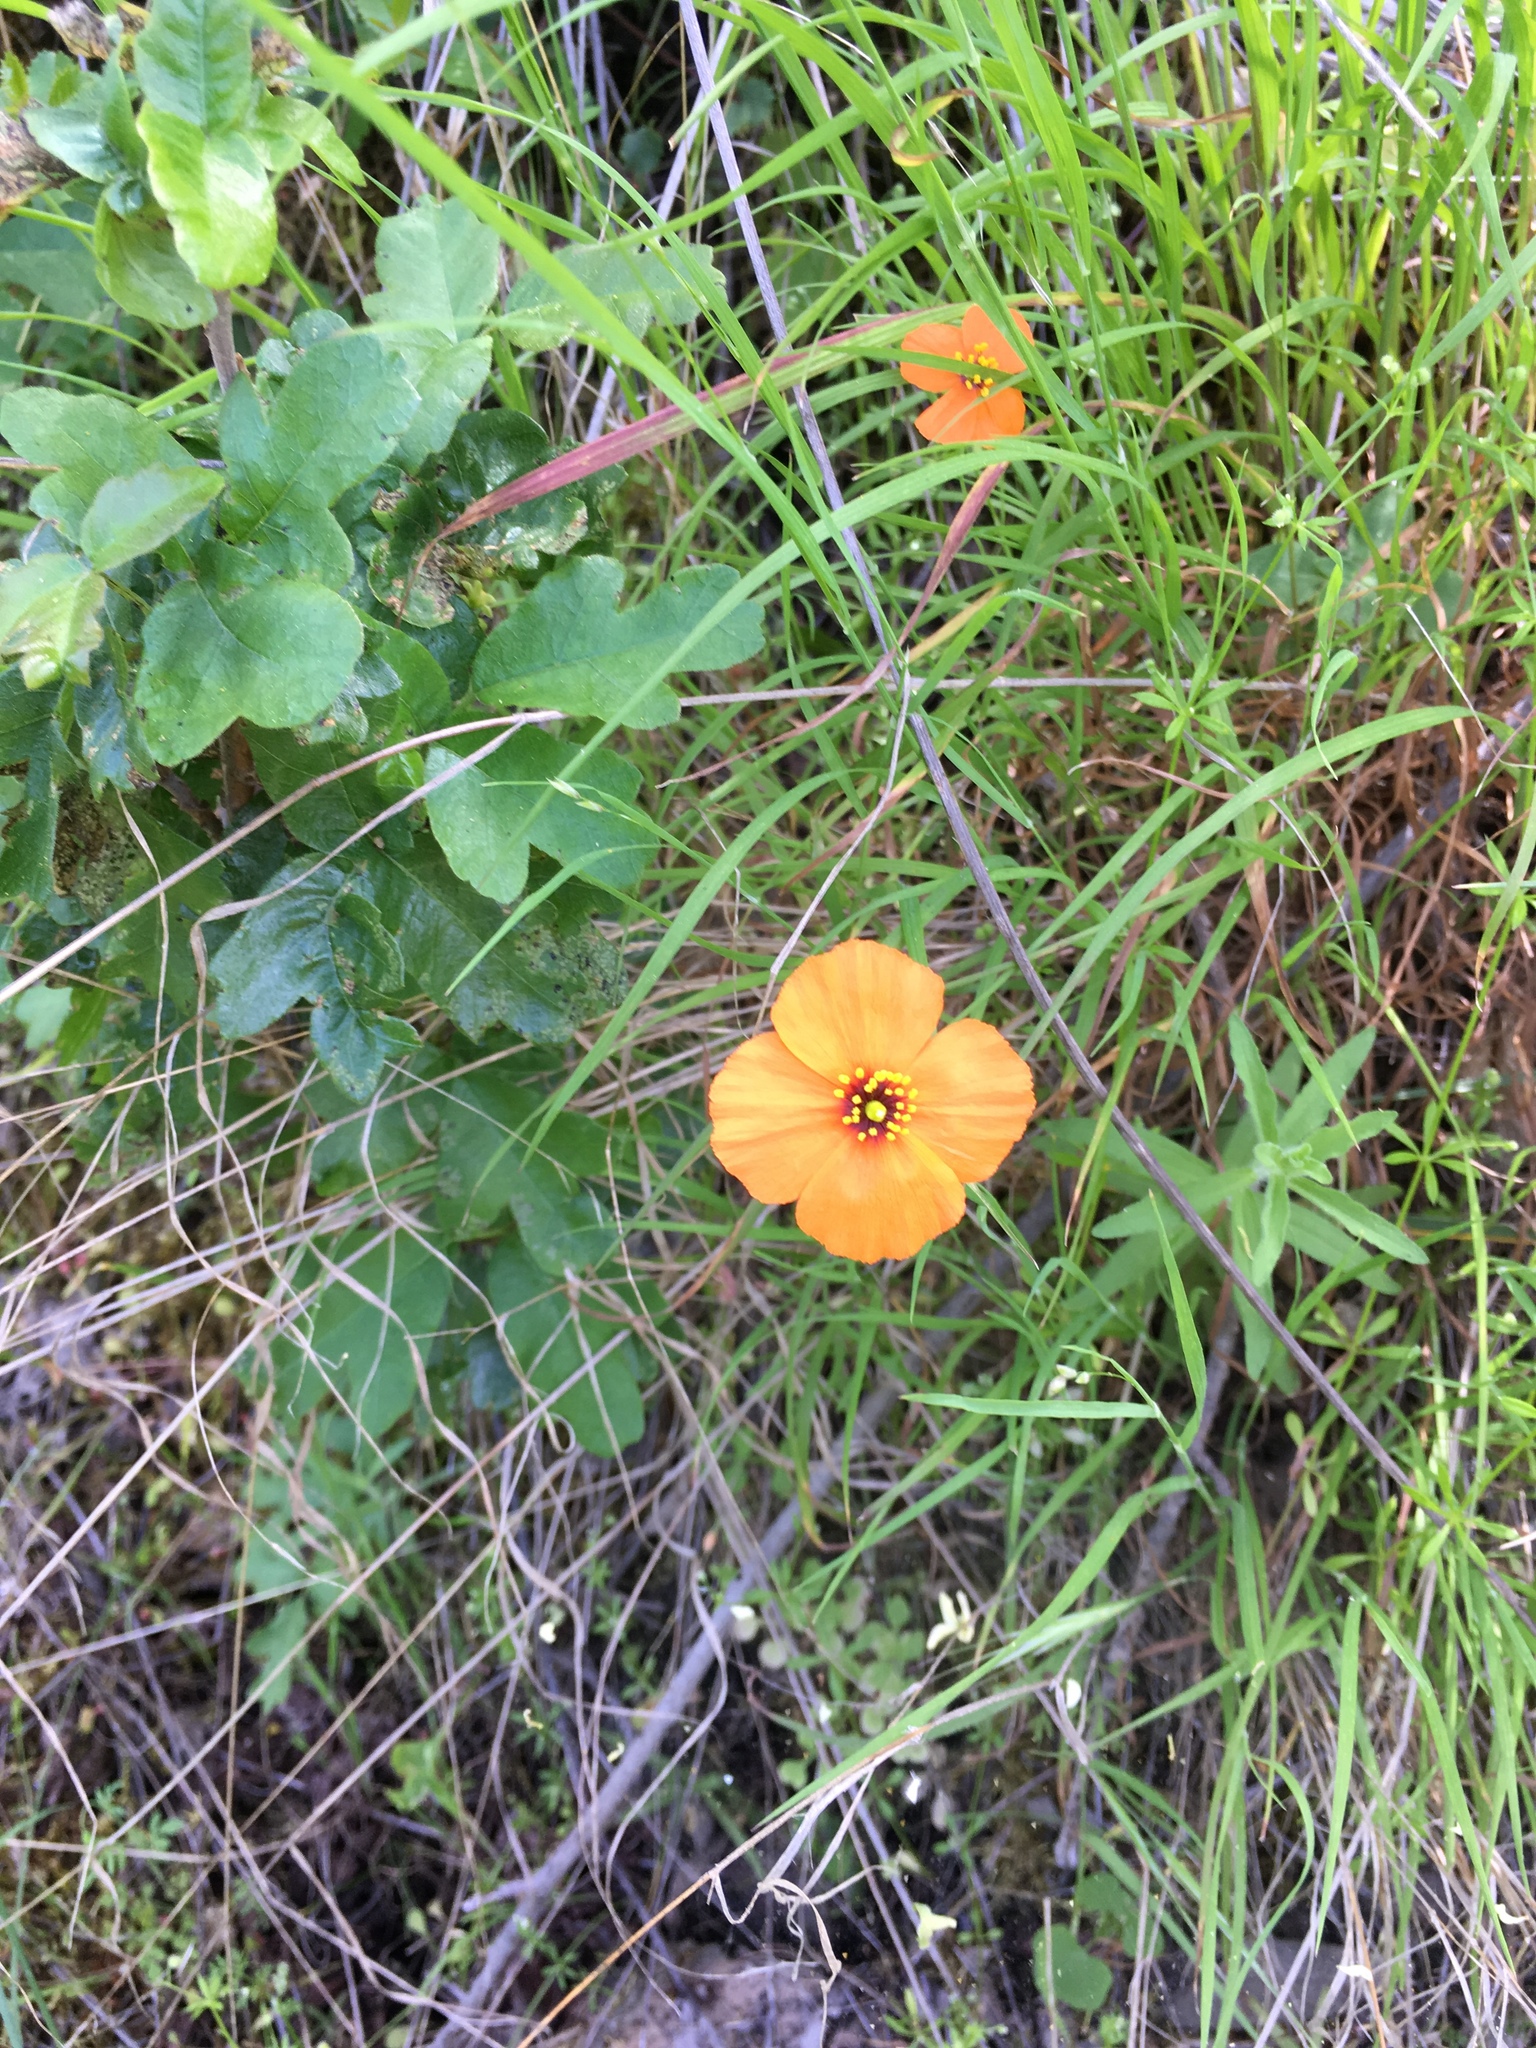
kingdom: Plantae
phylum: Tracheophyta
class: Magnoliopsida
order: Ranunculales
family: Papaveraceae
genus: Stylomecon
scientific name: Stylomecon heterophylla
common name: Flaming-poppy
